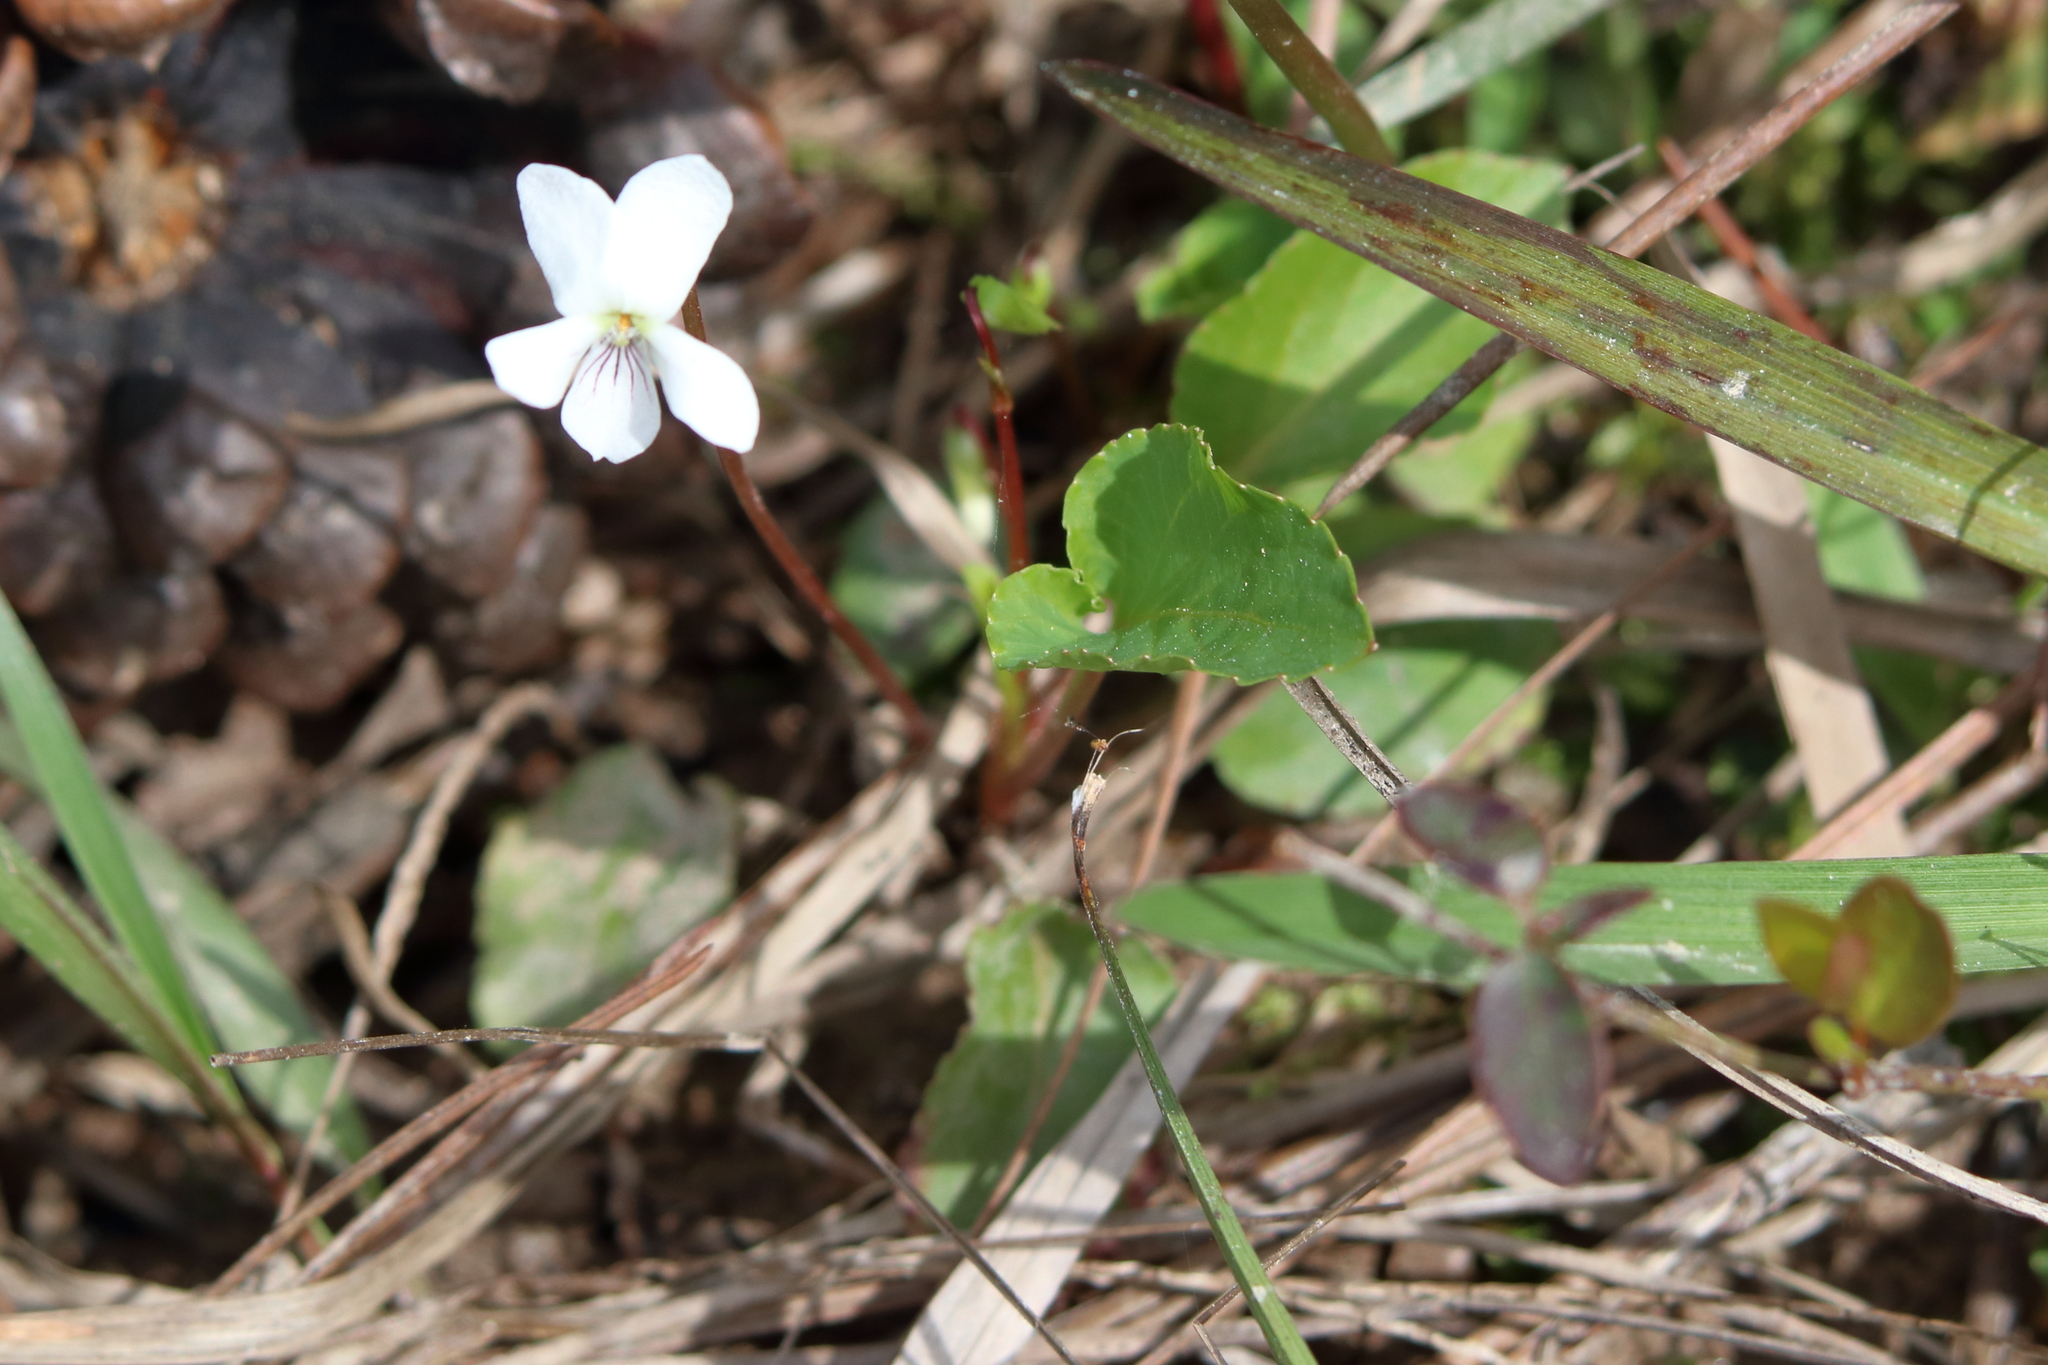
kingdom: Plantae
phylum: Tracheophyta
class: Magnoliopsida
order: Malpighiales
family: Violaceae
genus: Viola
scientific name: Viola primulifolia
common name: Primrose-leaf violet
